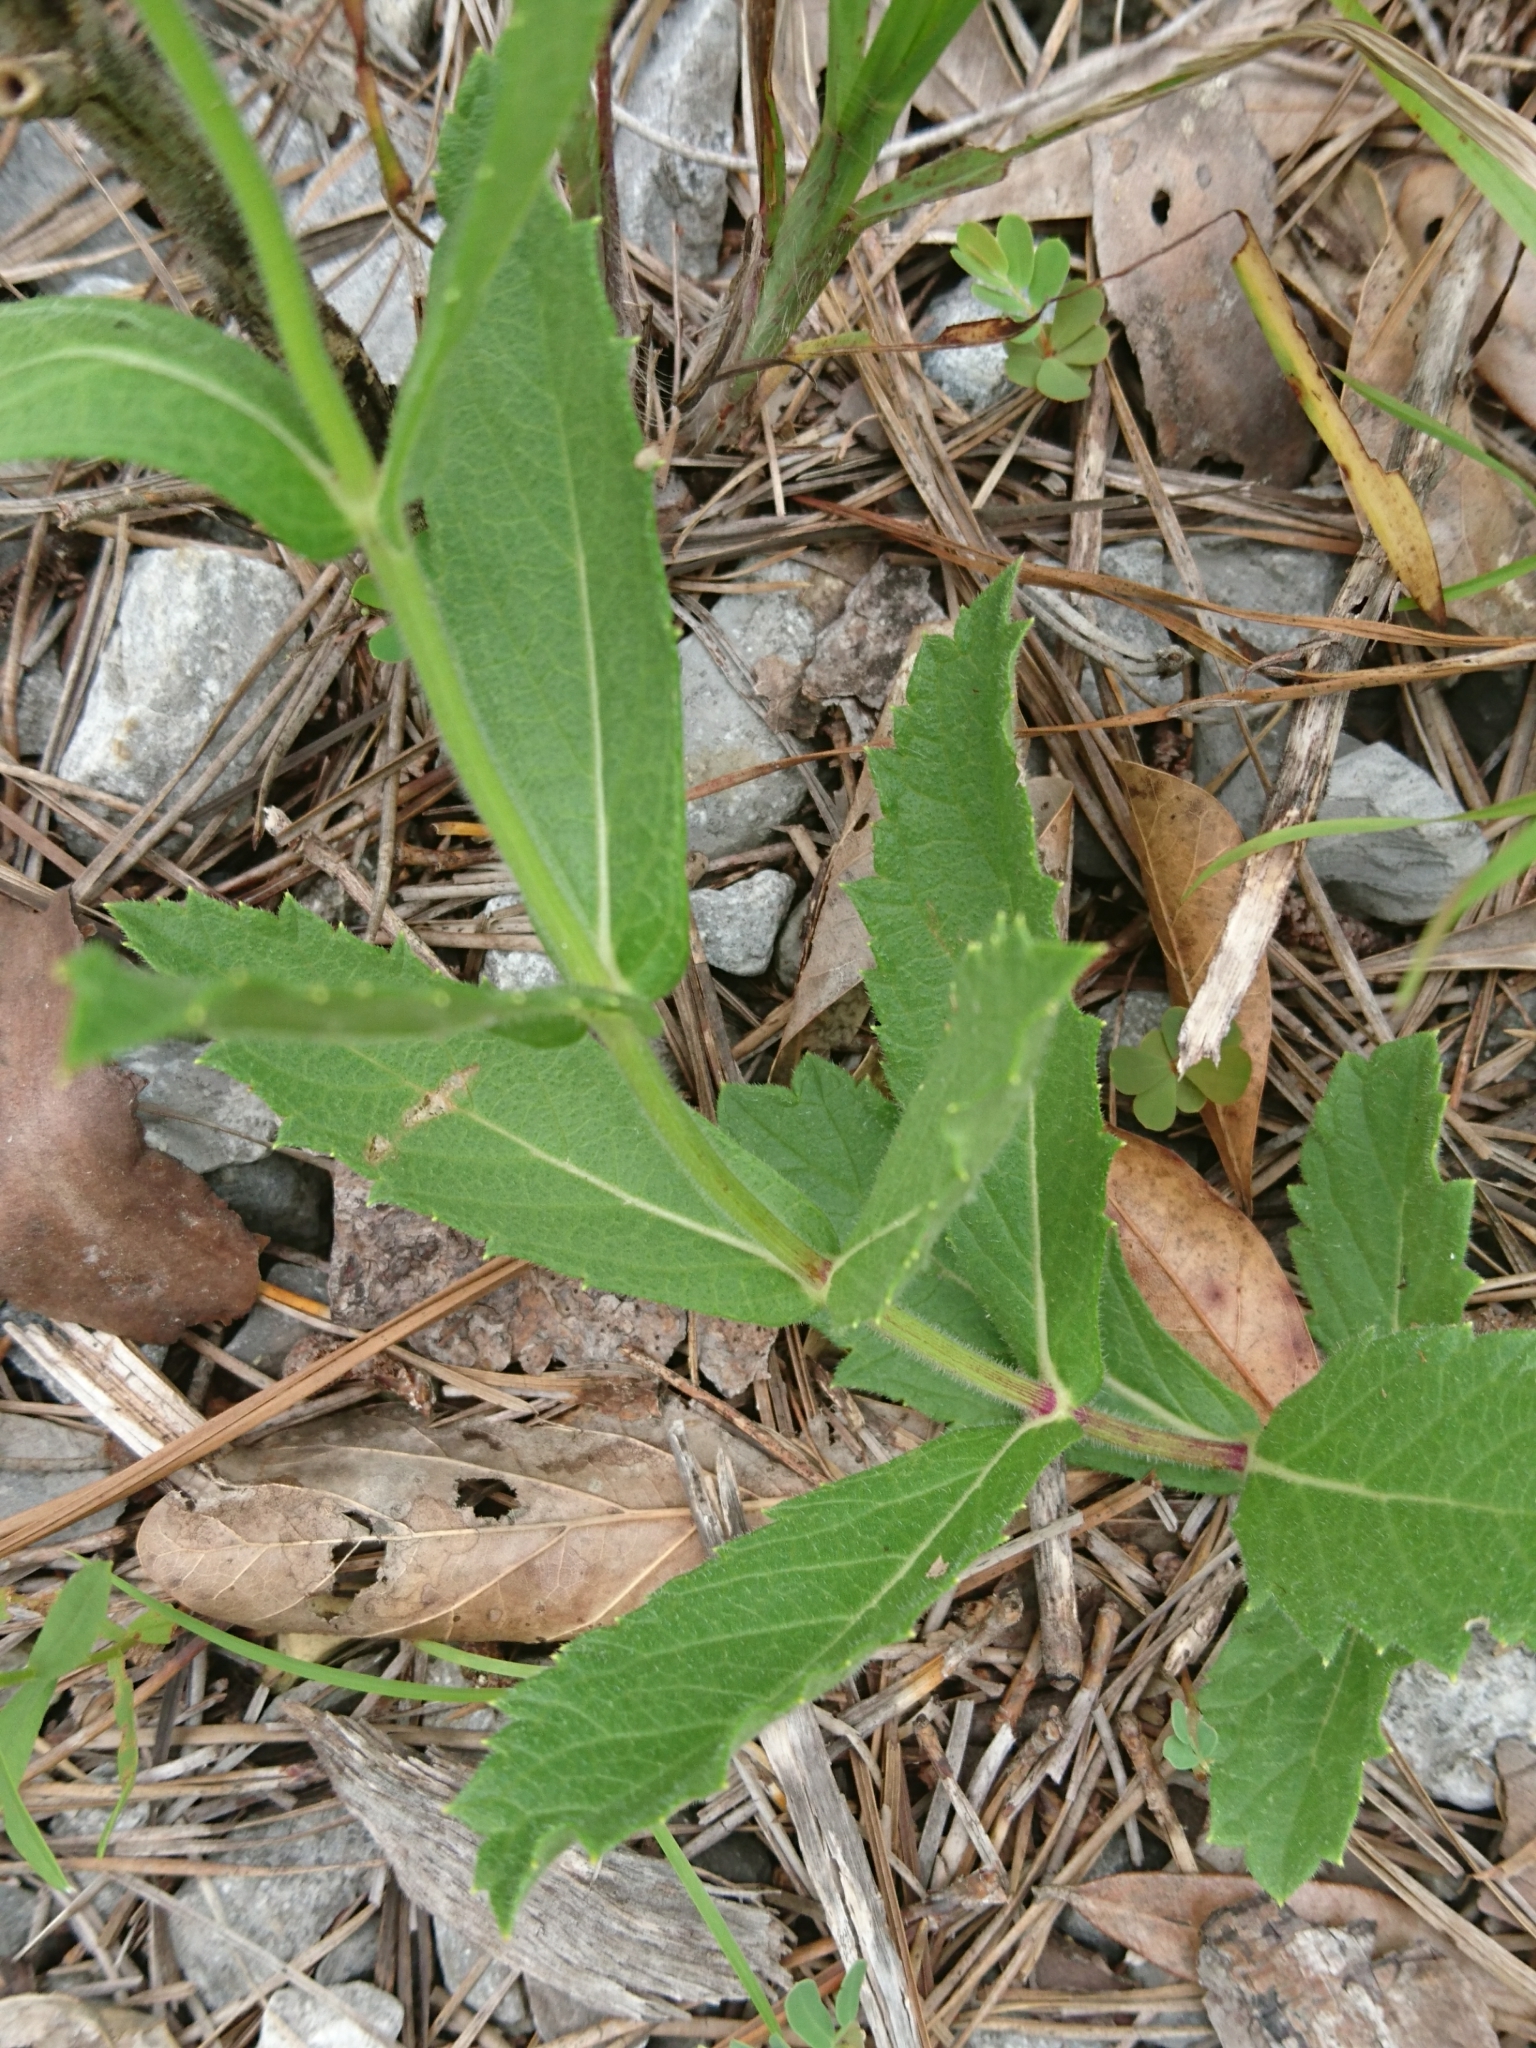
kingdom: Plantae
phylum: Tracheophyta
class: Magnoliopsida
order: Lamiales
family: Verbenaceae
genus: Verbena
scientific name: Verbena rigida
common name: Slender vervain
